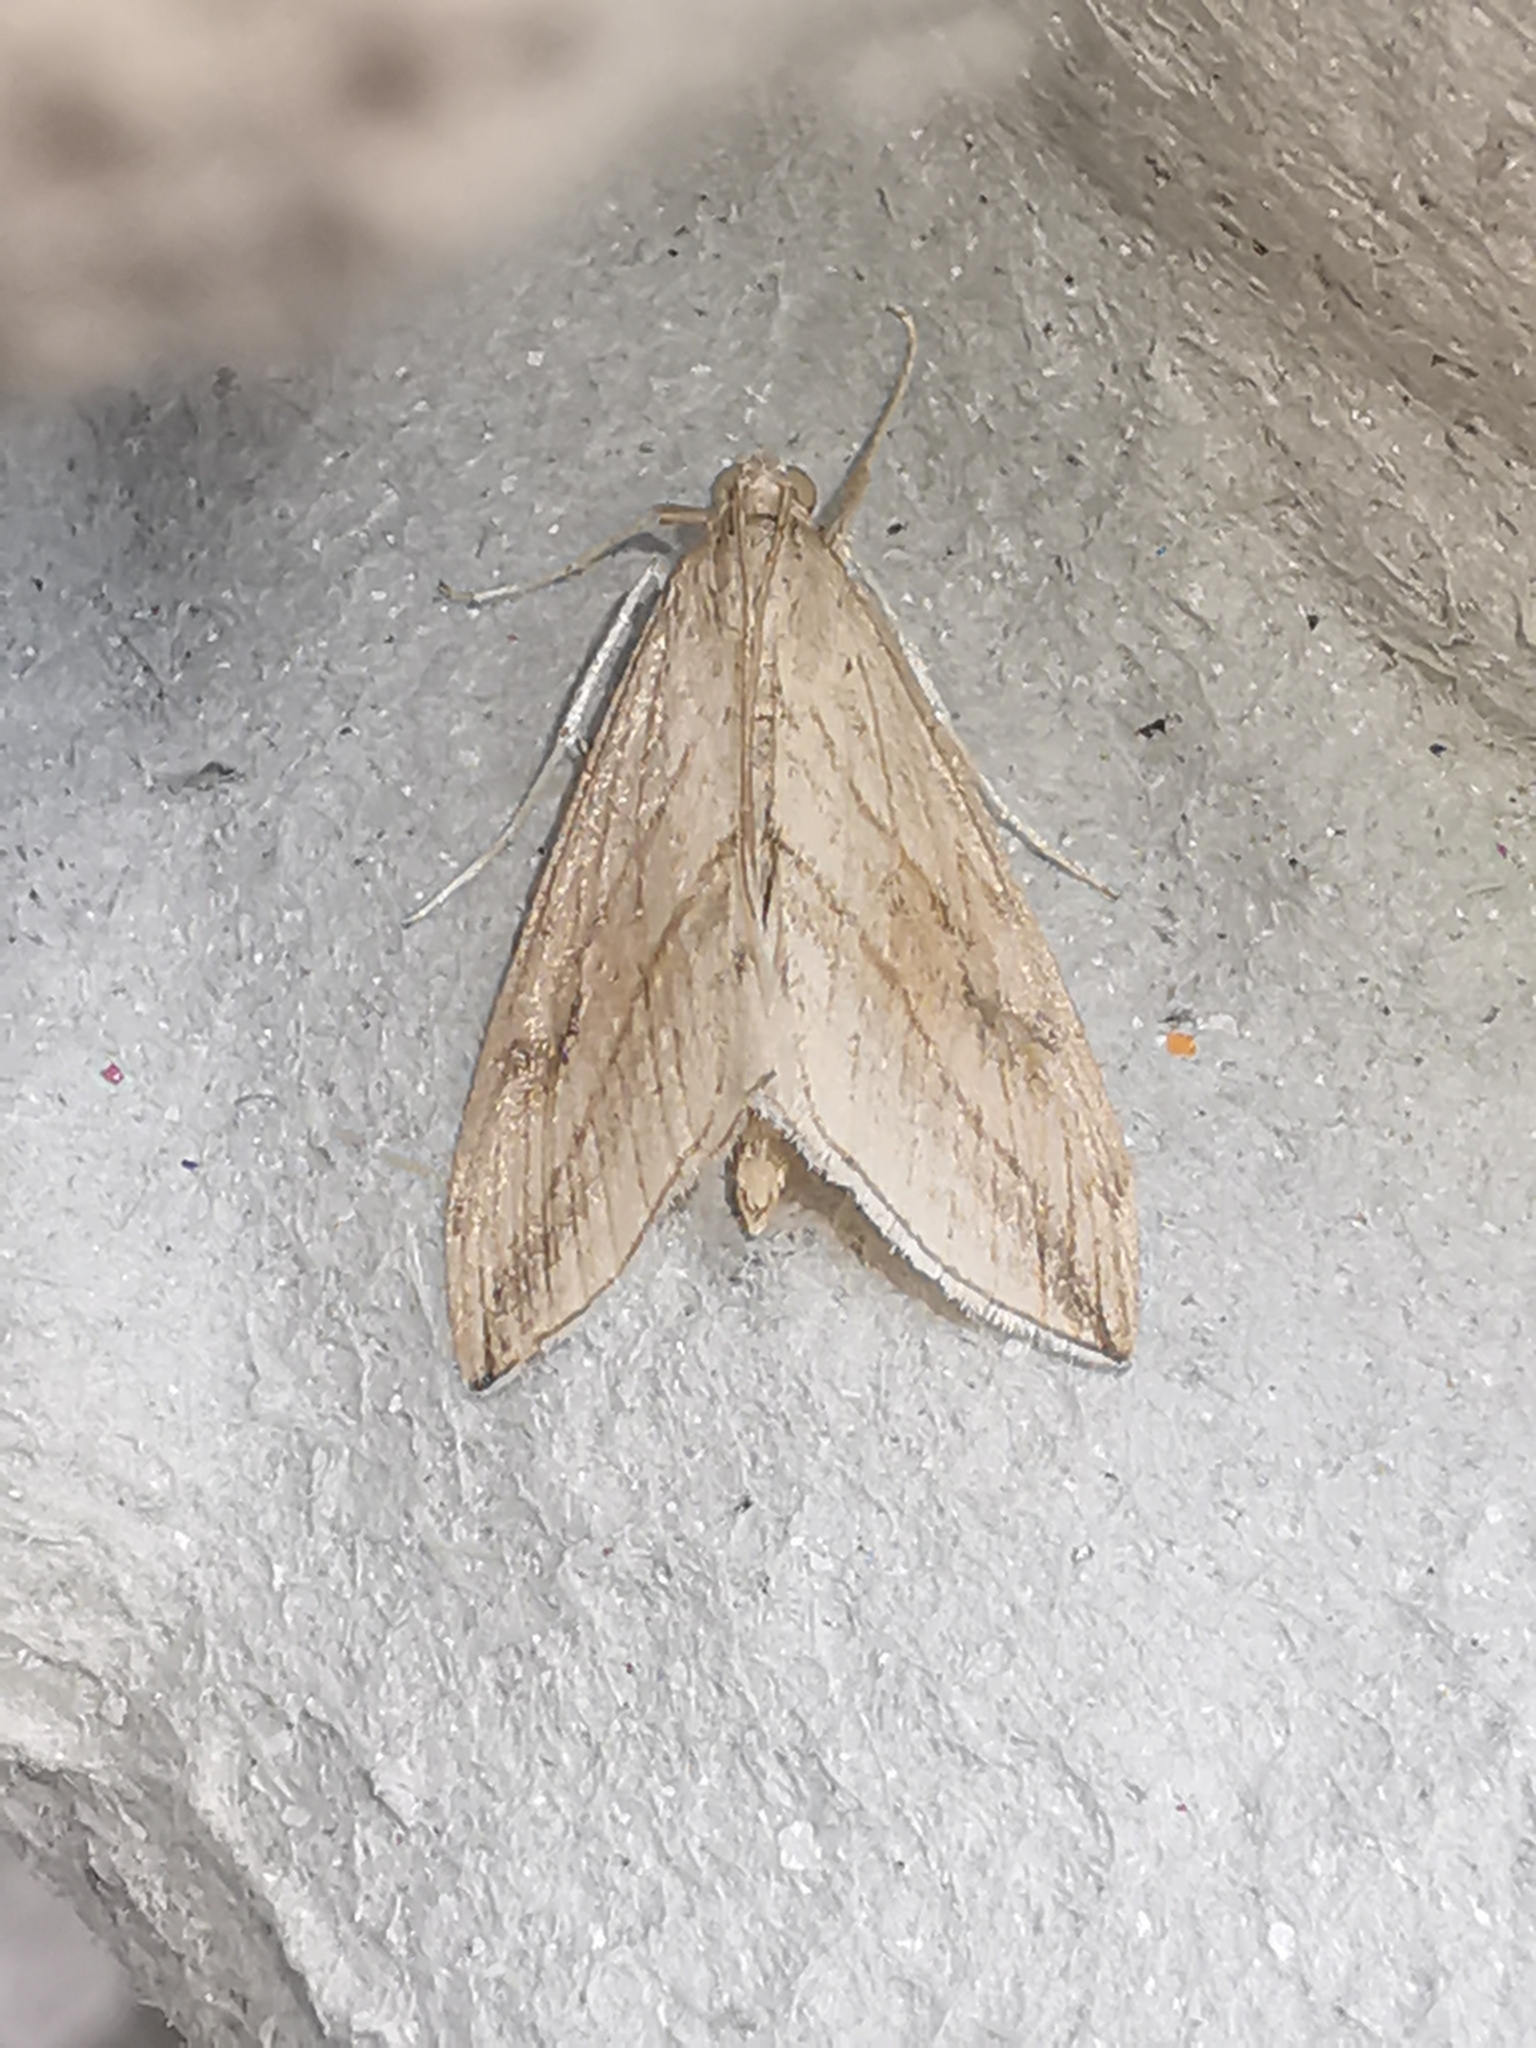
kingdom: Animalia
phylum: Arthropoda
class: Insecta
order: Lepidoptera
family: Crambidae
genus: Evergestis
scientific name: Evergestis forficalis
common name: Garden pebble
